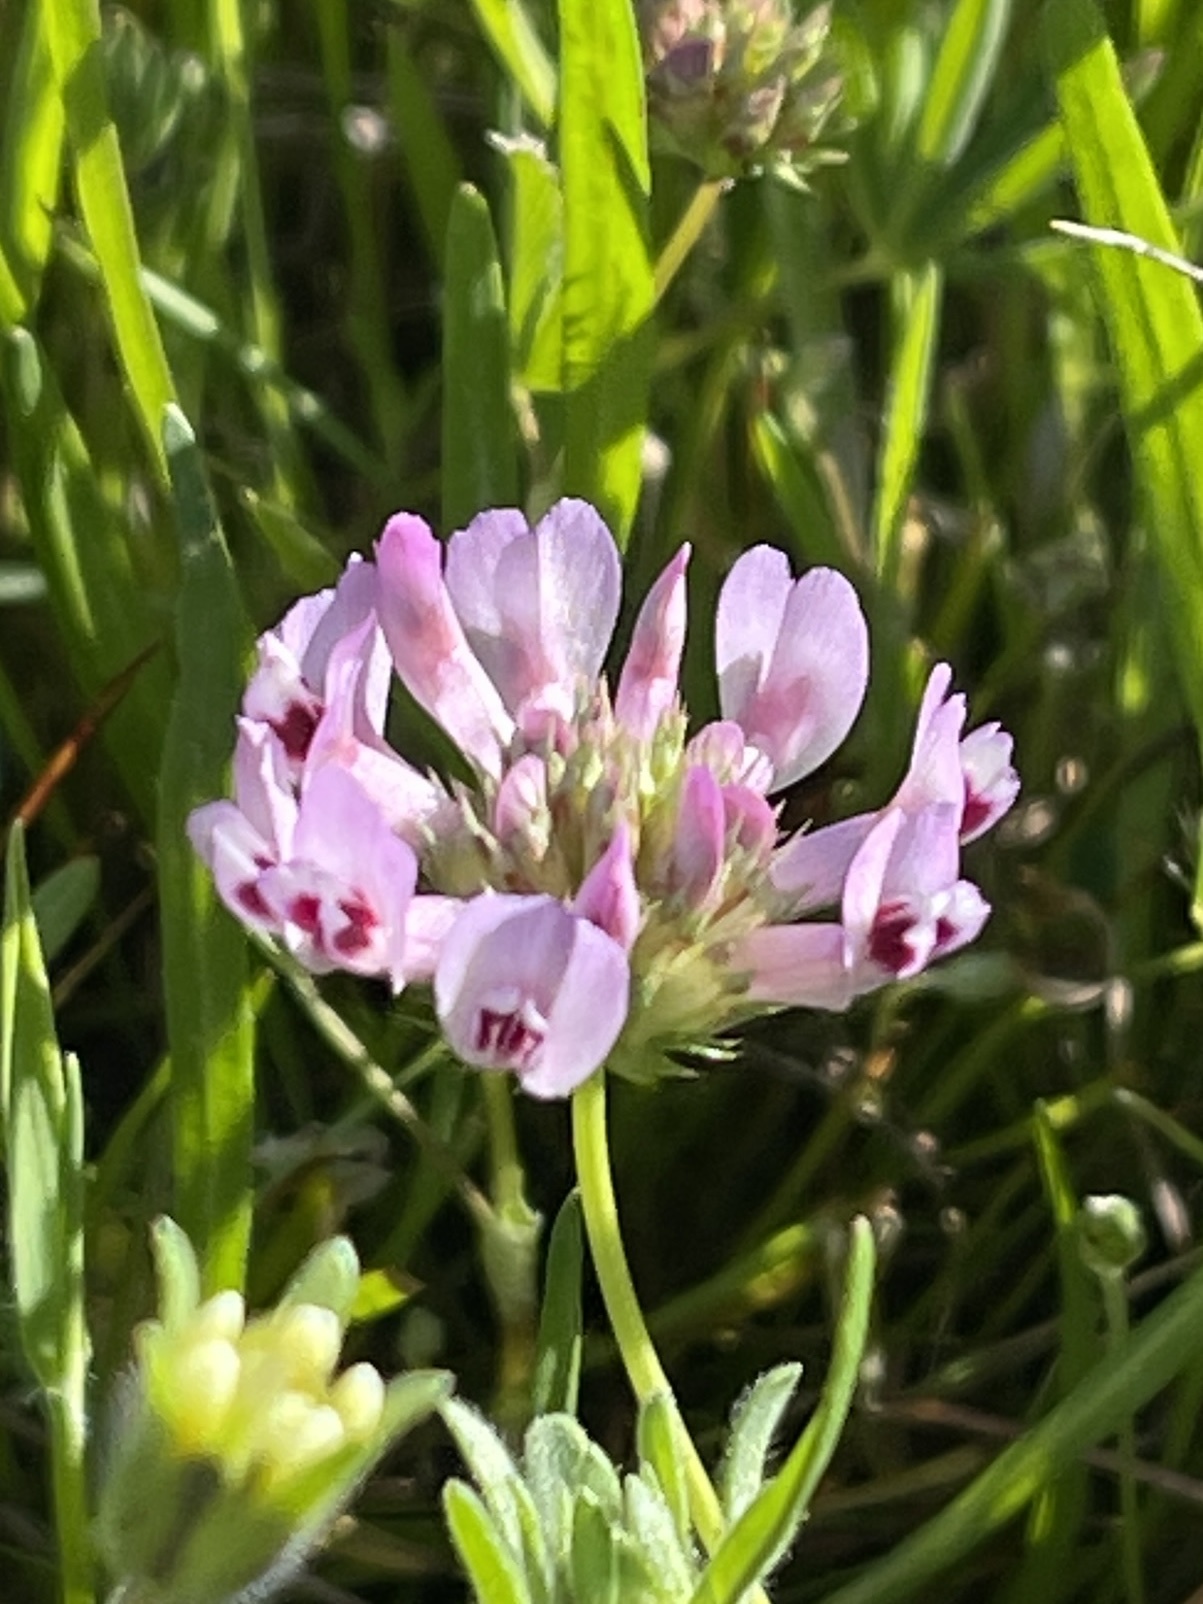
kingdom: Plantae
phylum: Tracheophyta
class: Magnoliopsida
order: Fabales
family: Fabaceae
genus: Trifolium
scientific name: Trifolium willdenovii
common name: Tomcat clover
